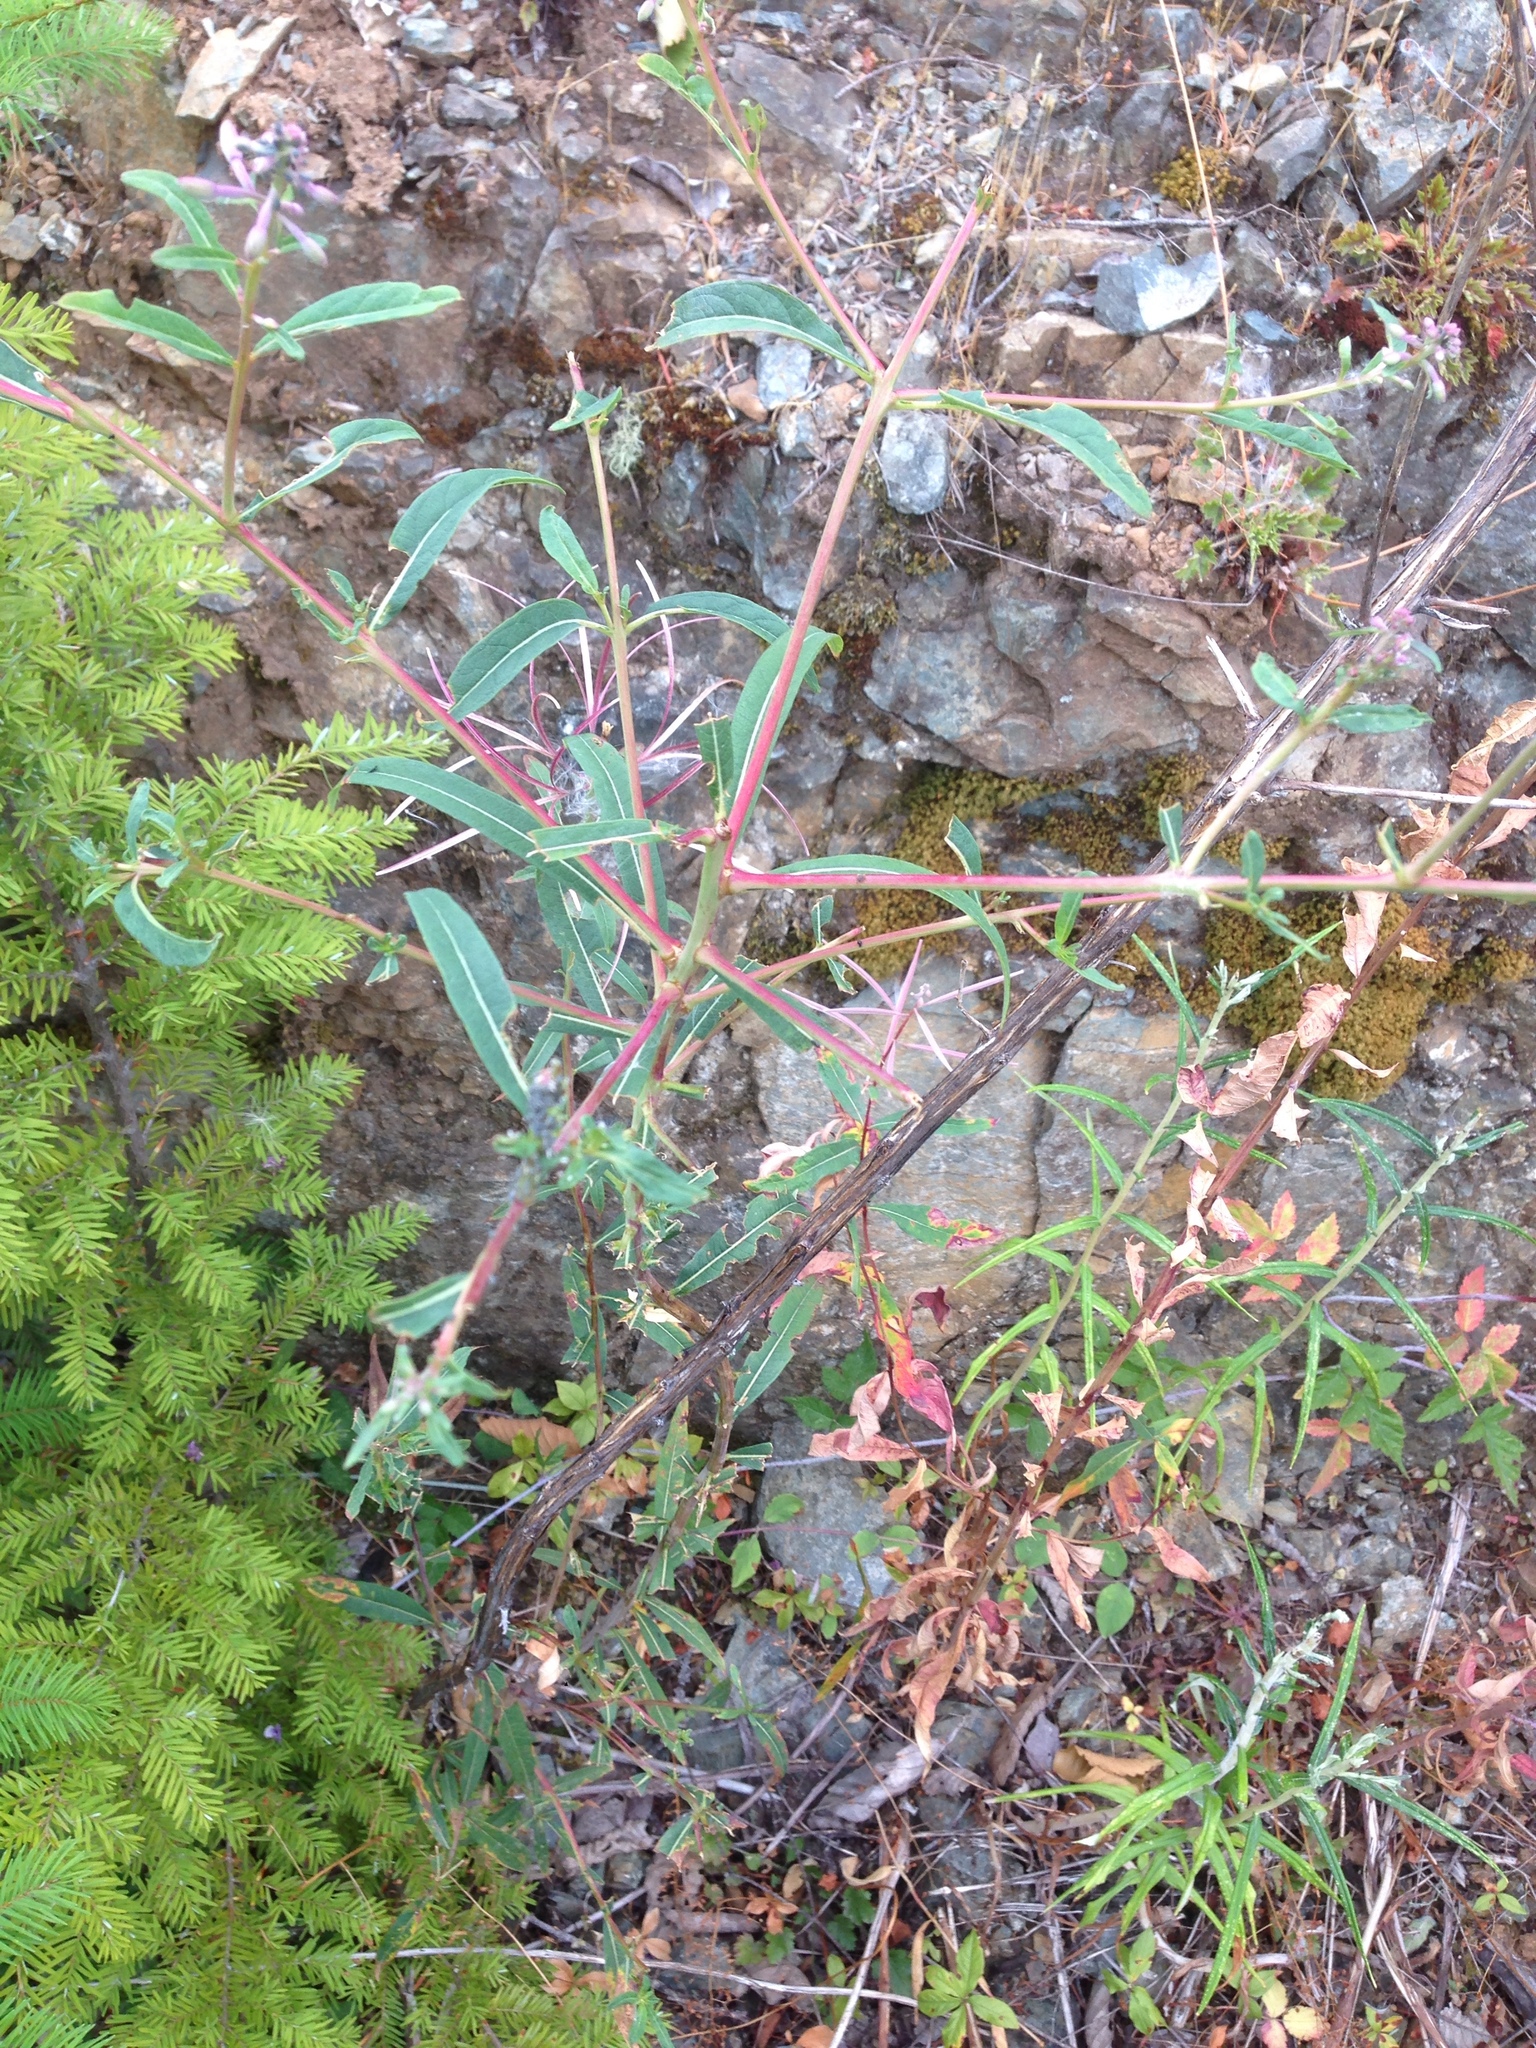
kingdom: Plantae
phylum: Tracheophyta
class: Magnoliopsida
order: Myrtales
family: Onagraceae
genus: Chamaenerion
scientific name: Chamaenerion angustifolium
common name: Fireweed
